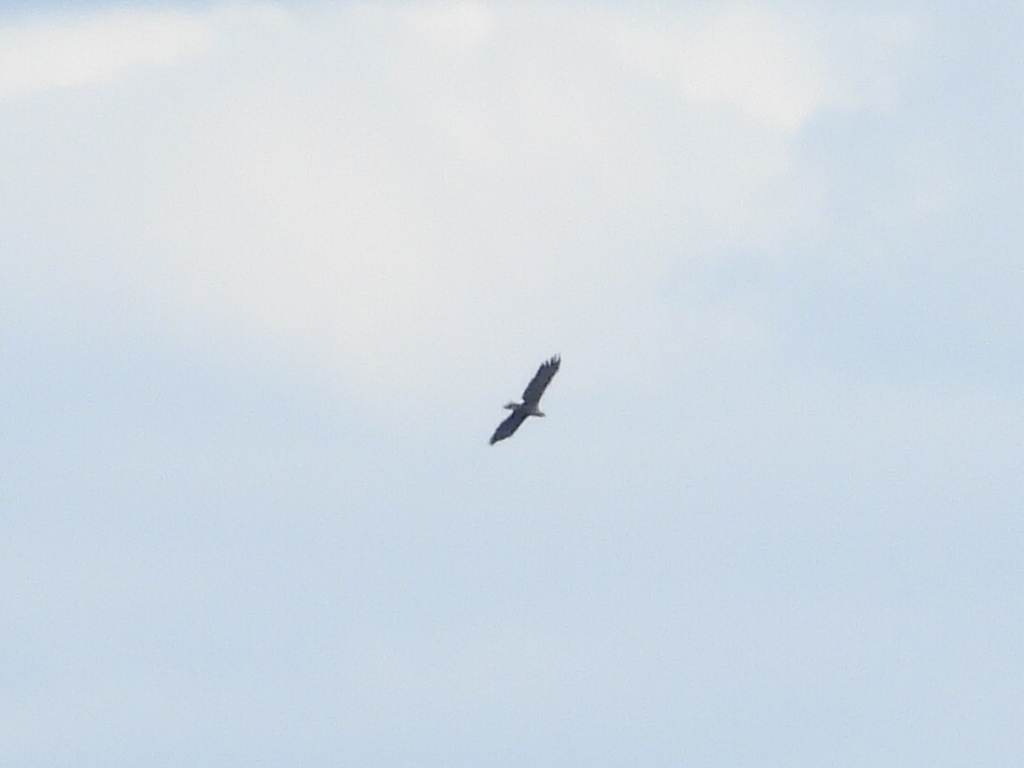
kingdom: Animalia
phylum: Chordata
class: Aves
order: Accipitriformes
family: Accipitridae
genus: Haliaeetus
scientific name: Haliaeetus albicilla
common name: White-tailed eagle
